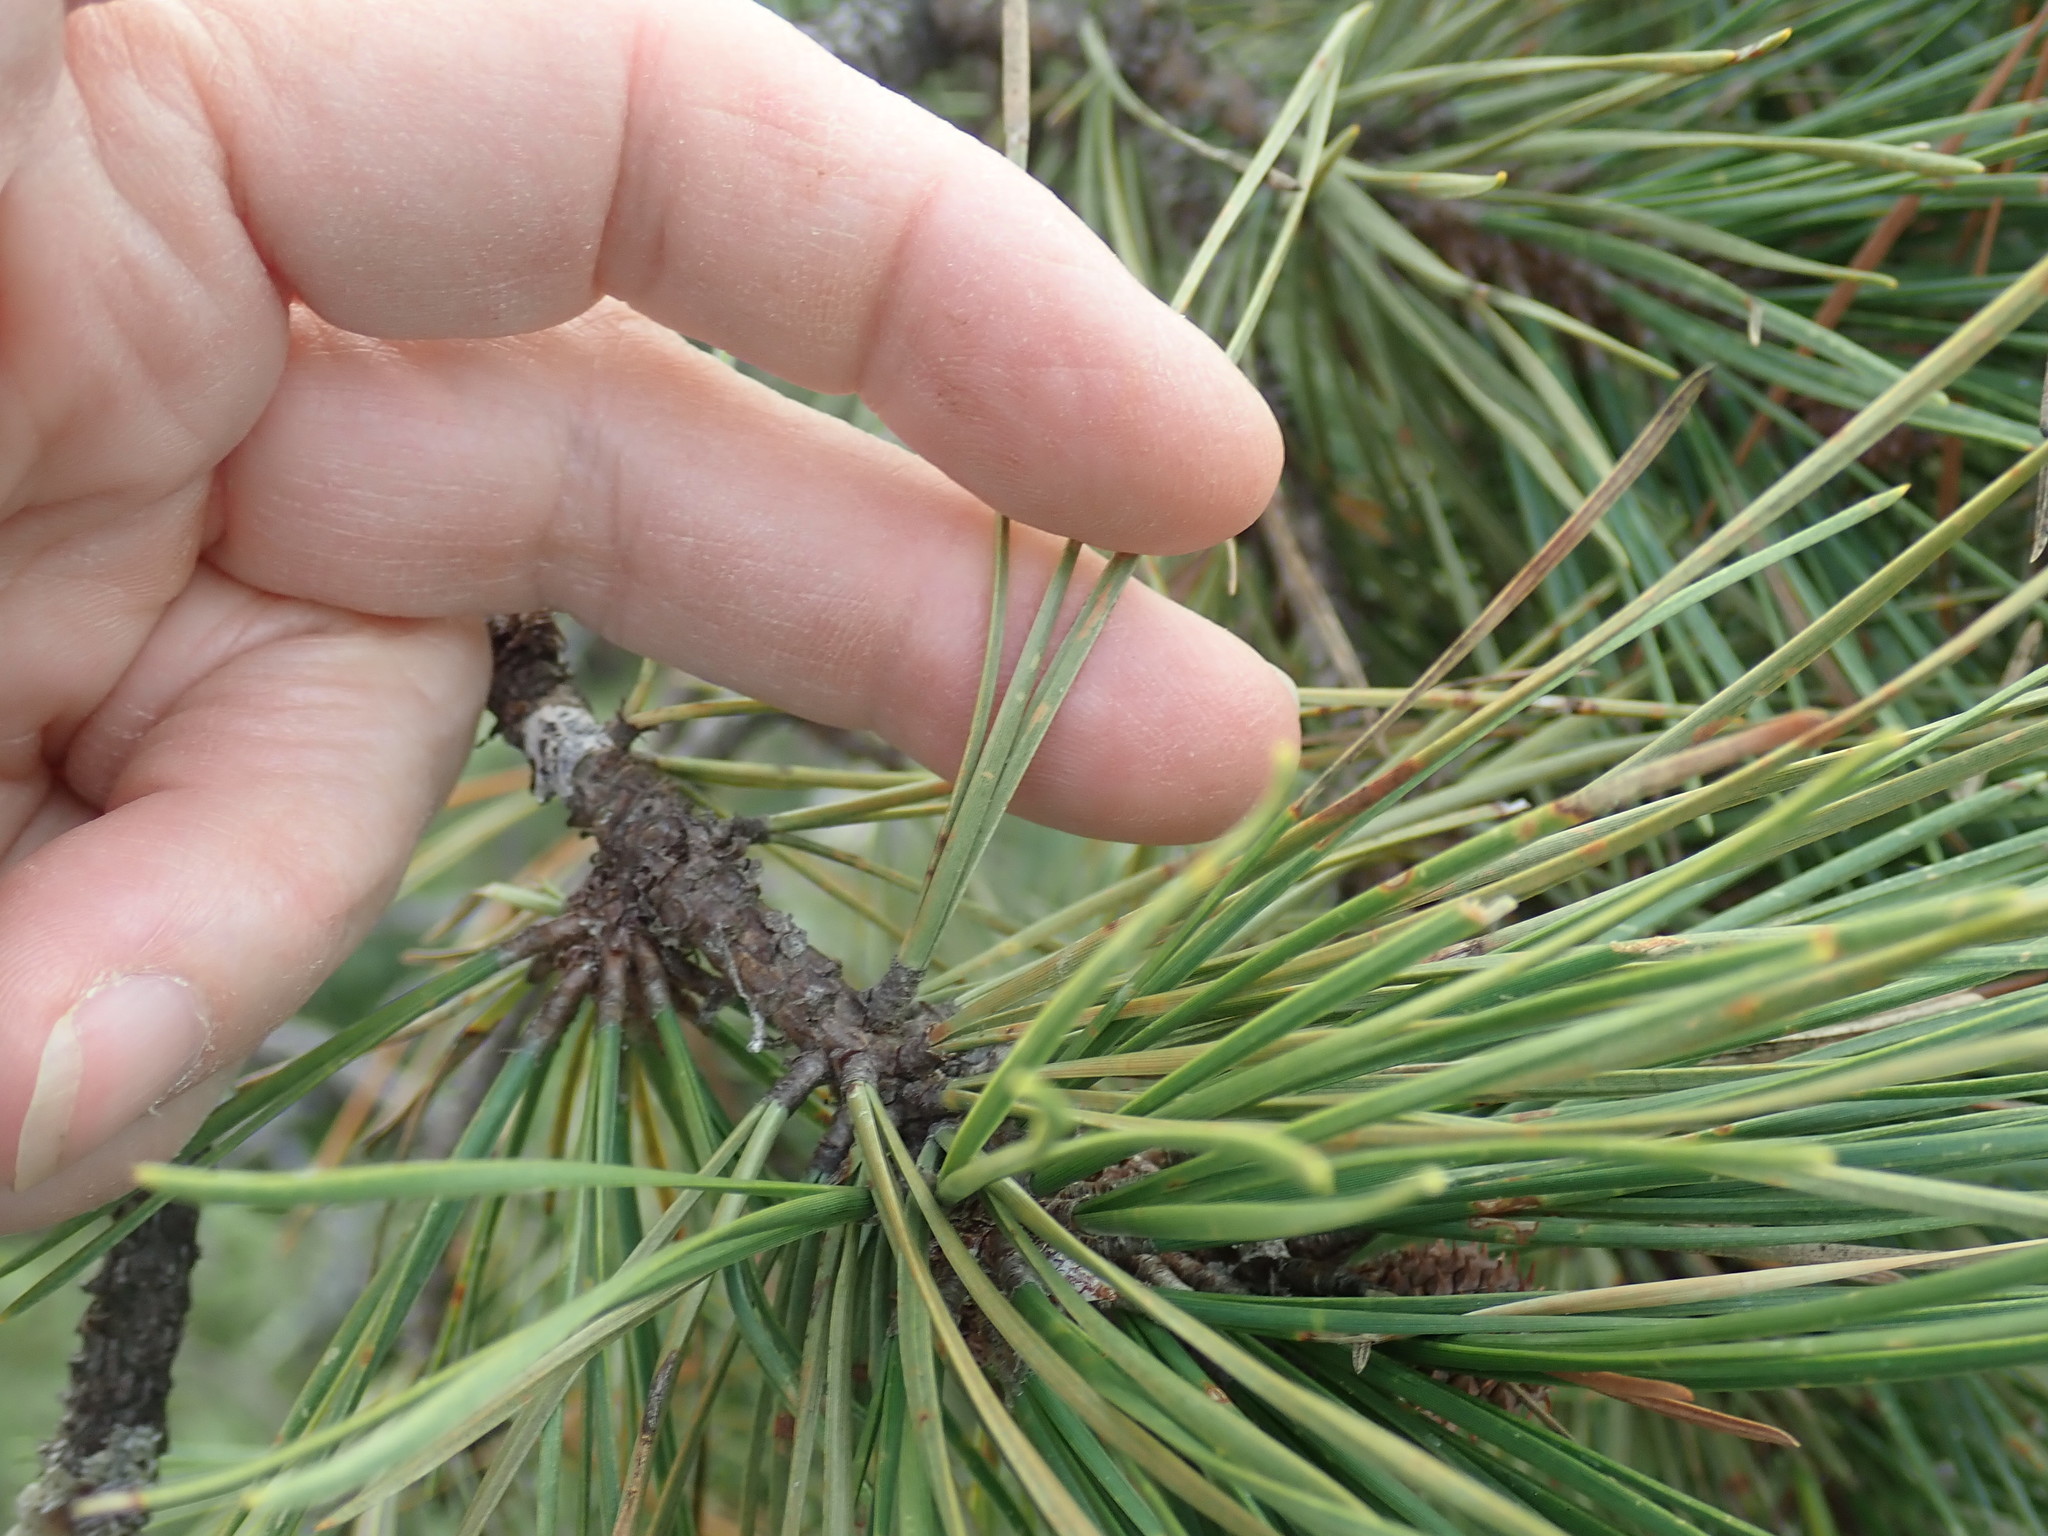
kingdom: Plantae
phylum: Tracheophyta
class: Pinopsida
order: Pinales
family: Pinaceae
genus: Pinus
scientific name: Pinus rigida
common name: Pitch pine
